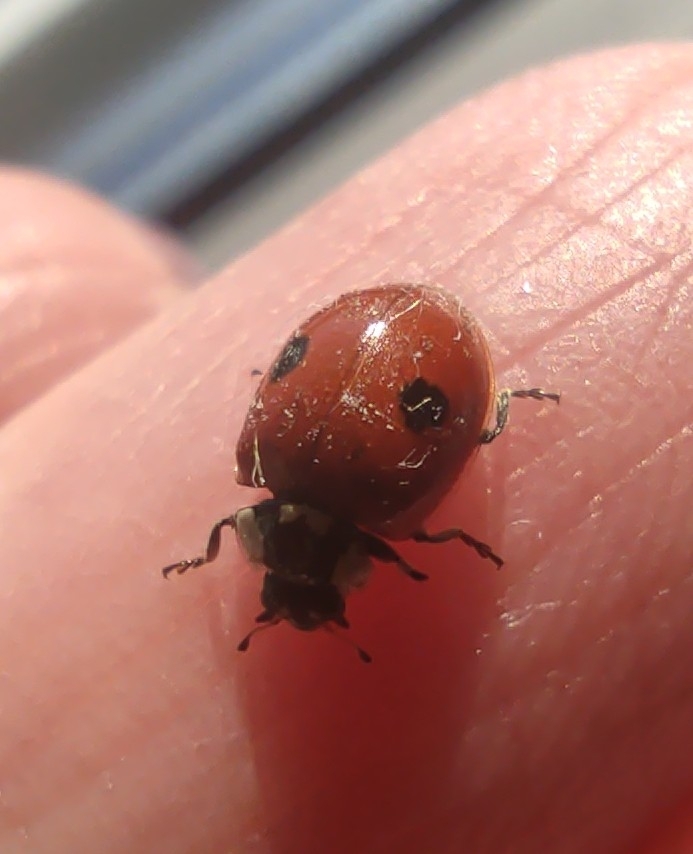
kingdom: Animalia
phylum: Arthropoda
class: Insecta
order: Coleoptera
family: Coccinellidae
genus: Adalia
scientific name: Adalia bipunctata
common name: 2-spot ladybird
